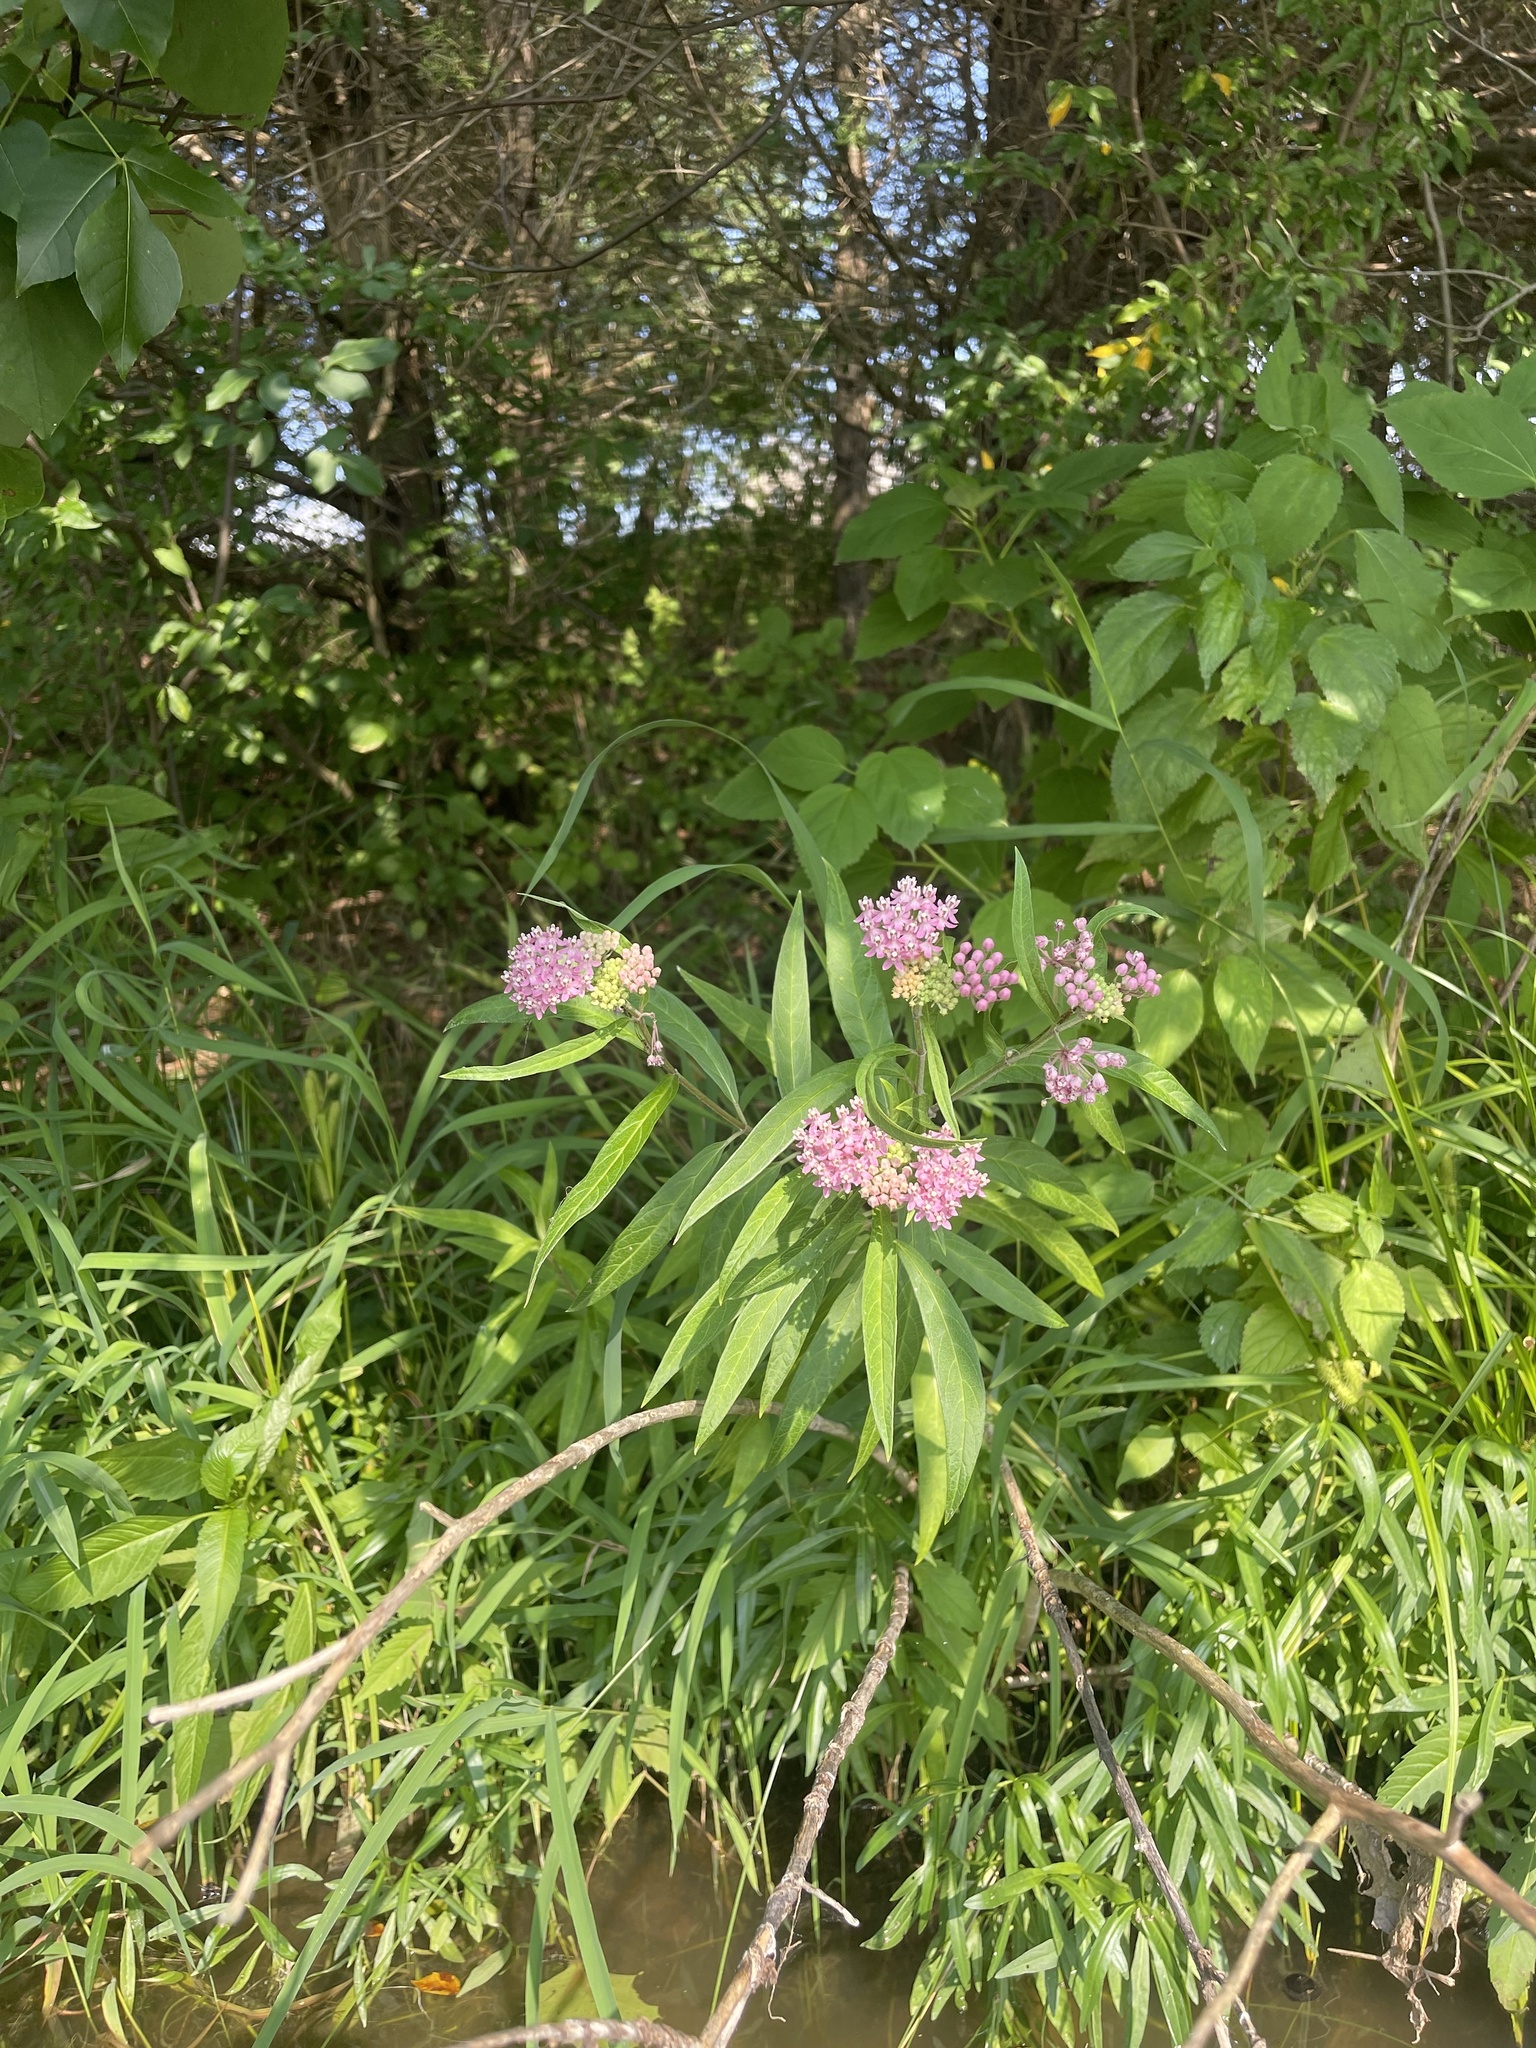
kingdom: Plantae
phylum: Tracheophyta
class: Magnoliopsida
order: Gentianales
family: Apocynaceae
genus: Asclepias
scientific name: Asclepias incarnata
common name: Swamp milkweed
